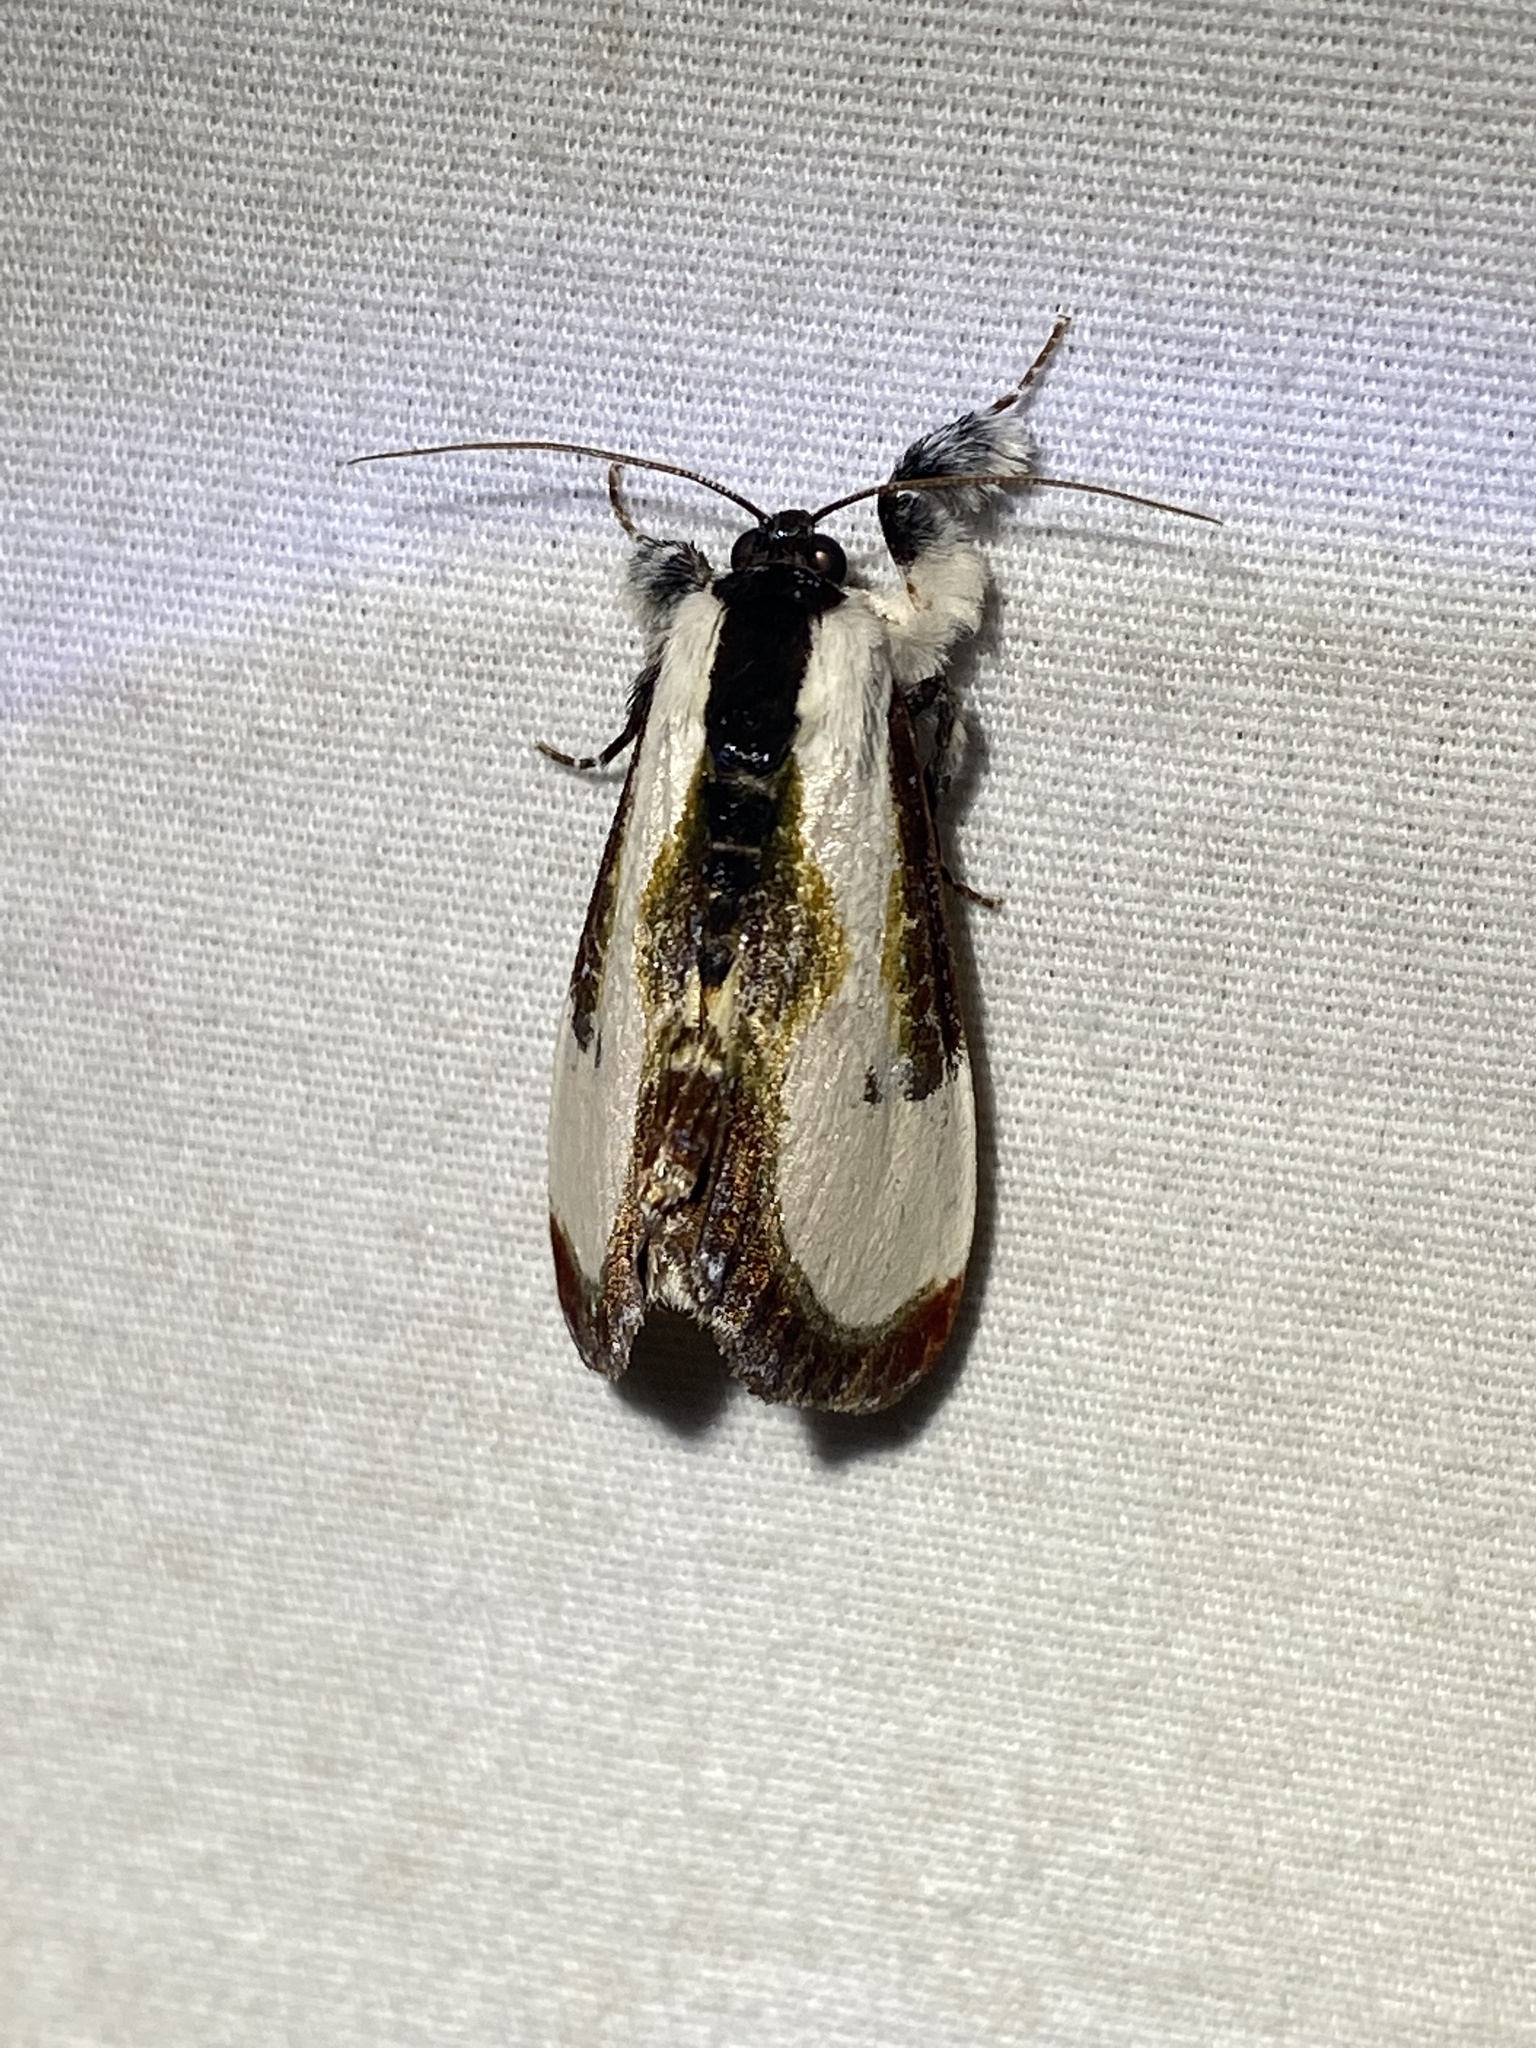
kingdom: Animalia
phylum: Arthropoda
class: Insecta
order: Lepidoptera
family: Noctuidae
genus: Eudryas
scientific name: Eudryas grata
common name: Beautiful wood-nymph
